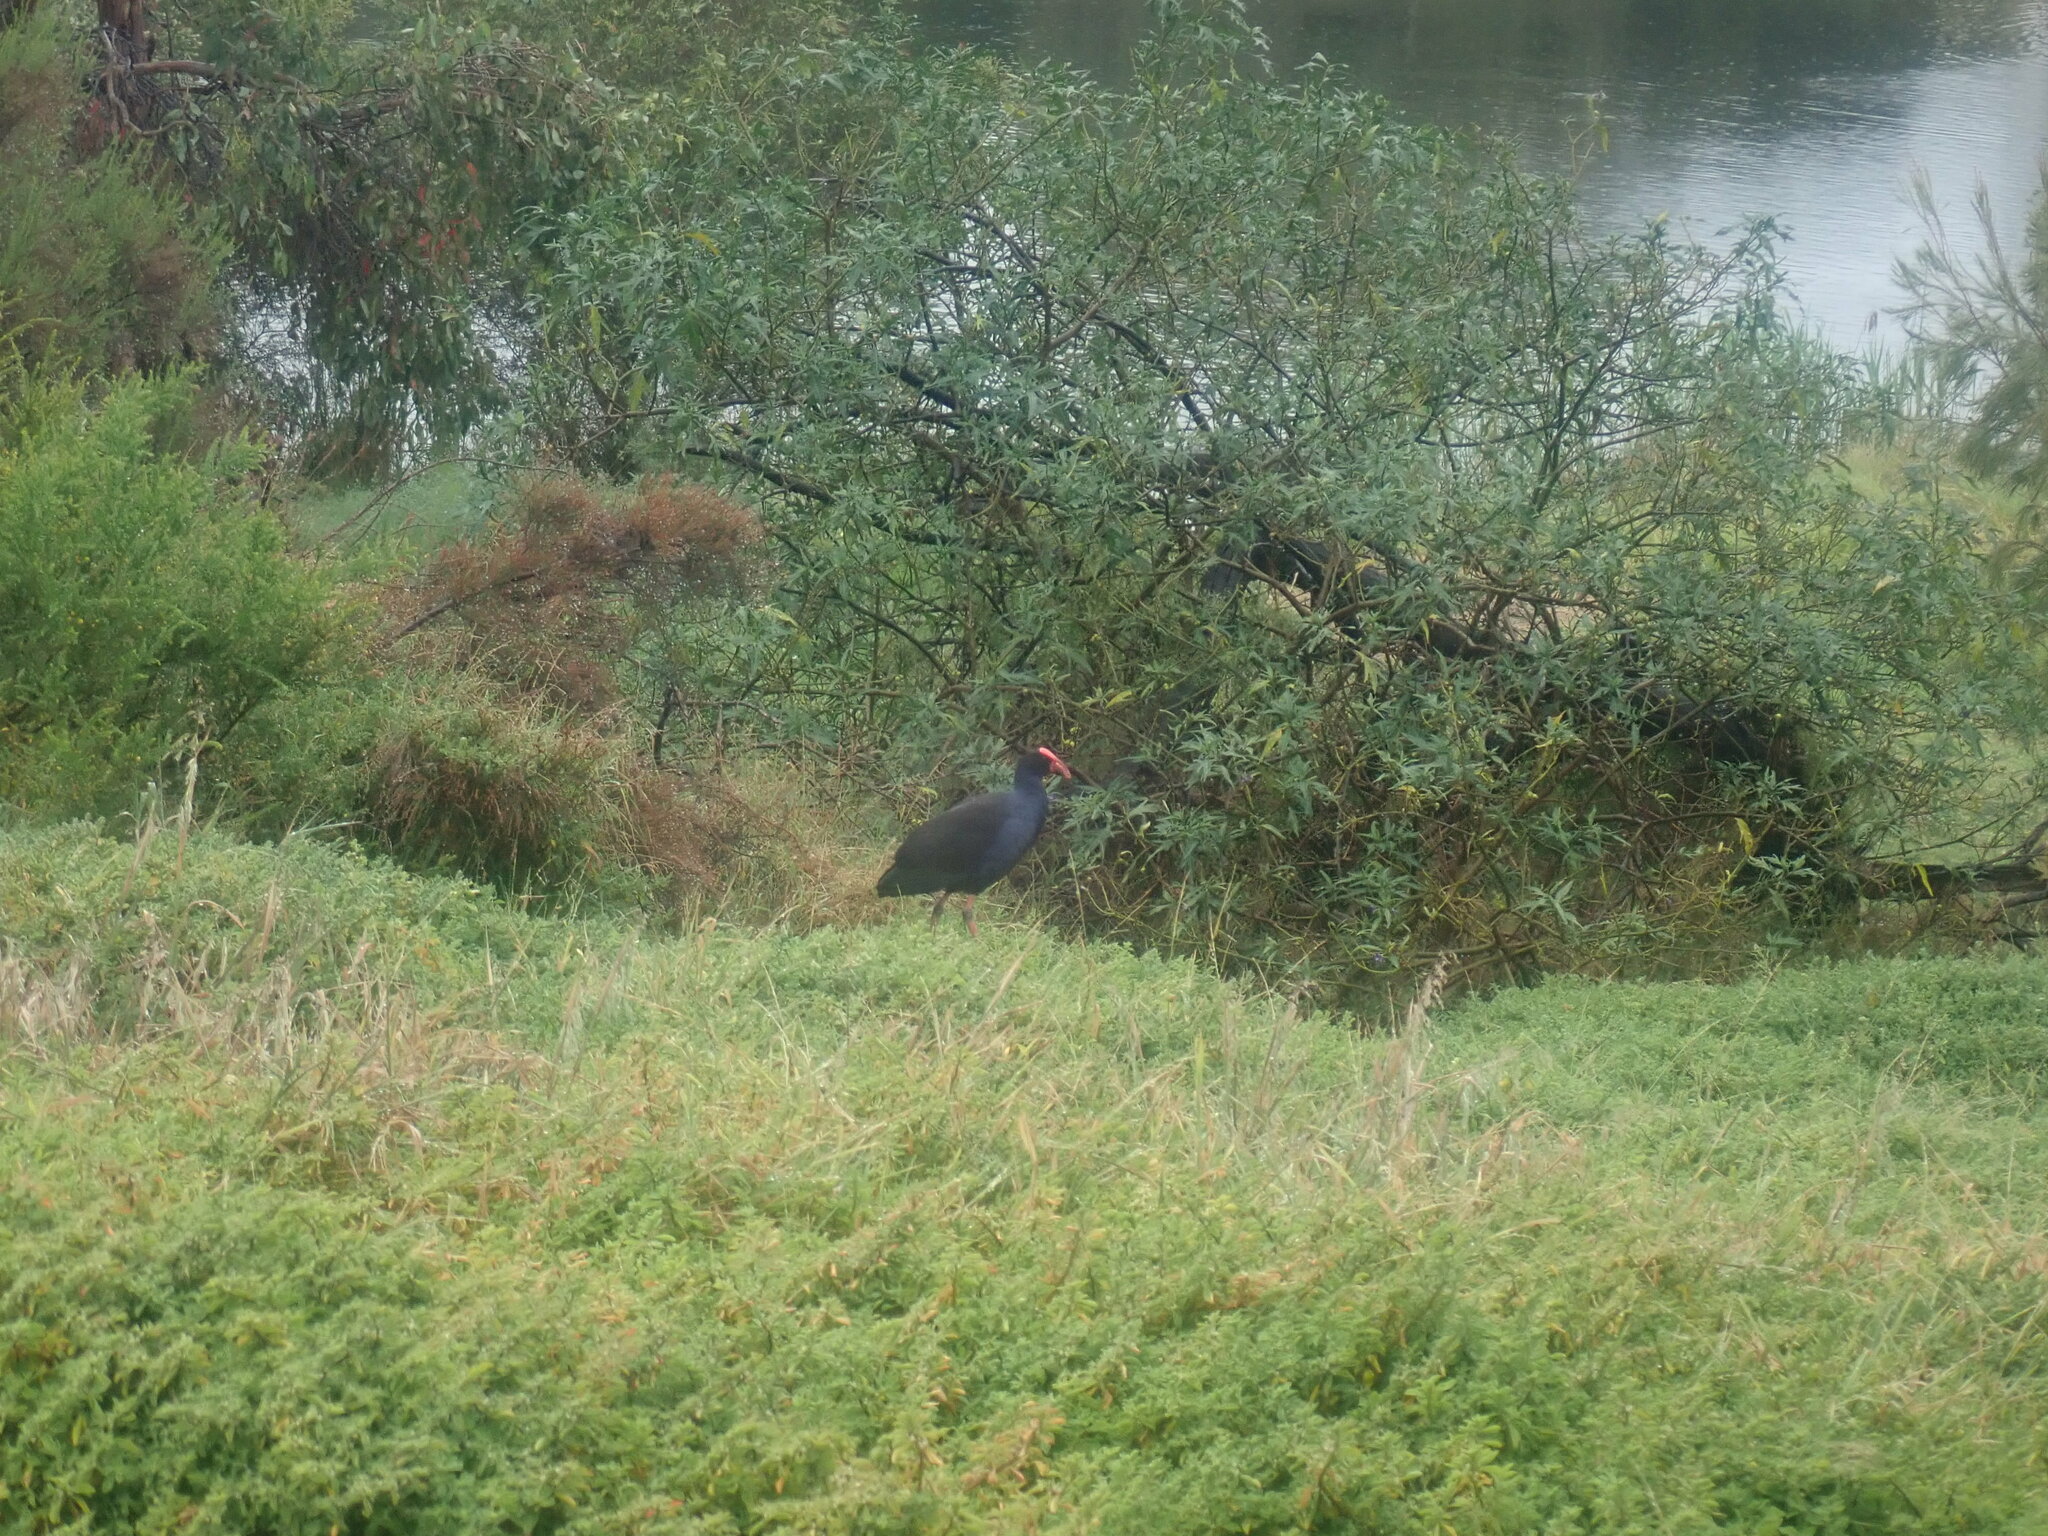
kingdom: Animalia
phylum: Chordata
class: Aves
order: Gruiformes
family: Rallidae
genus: Porphyrio
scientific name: Porphyrio melanotus
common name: Australasian swamphen
